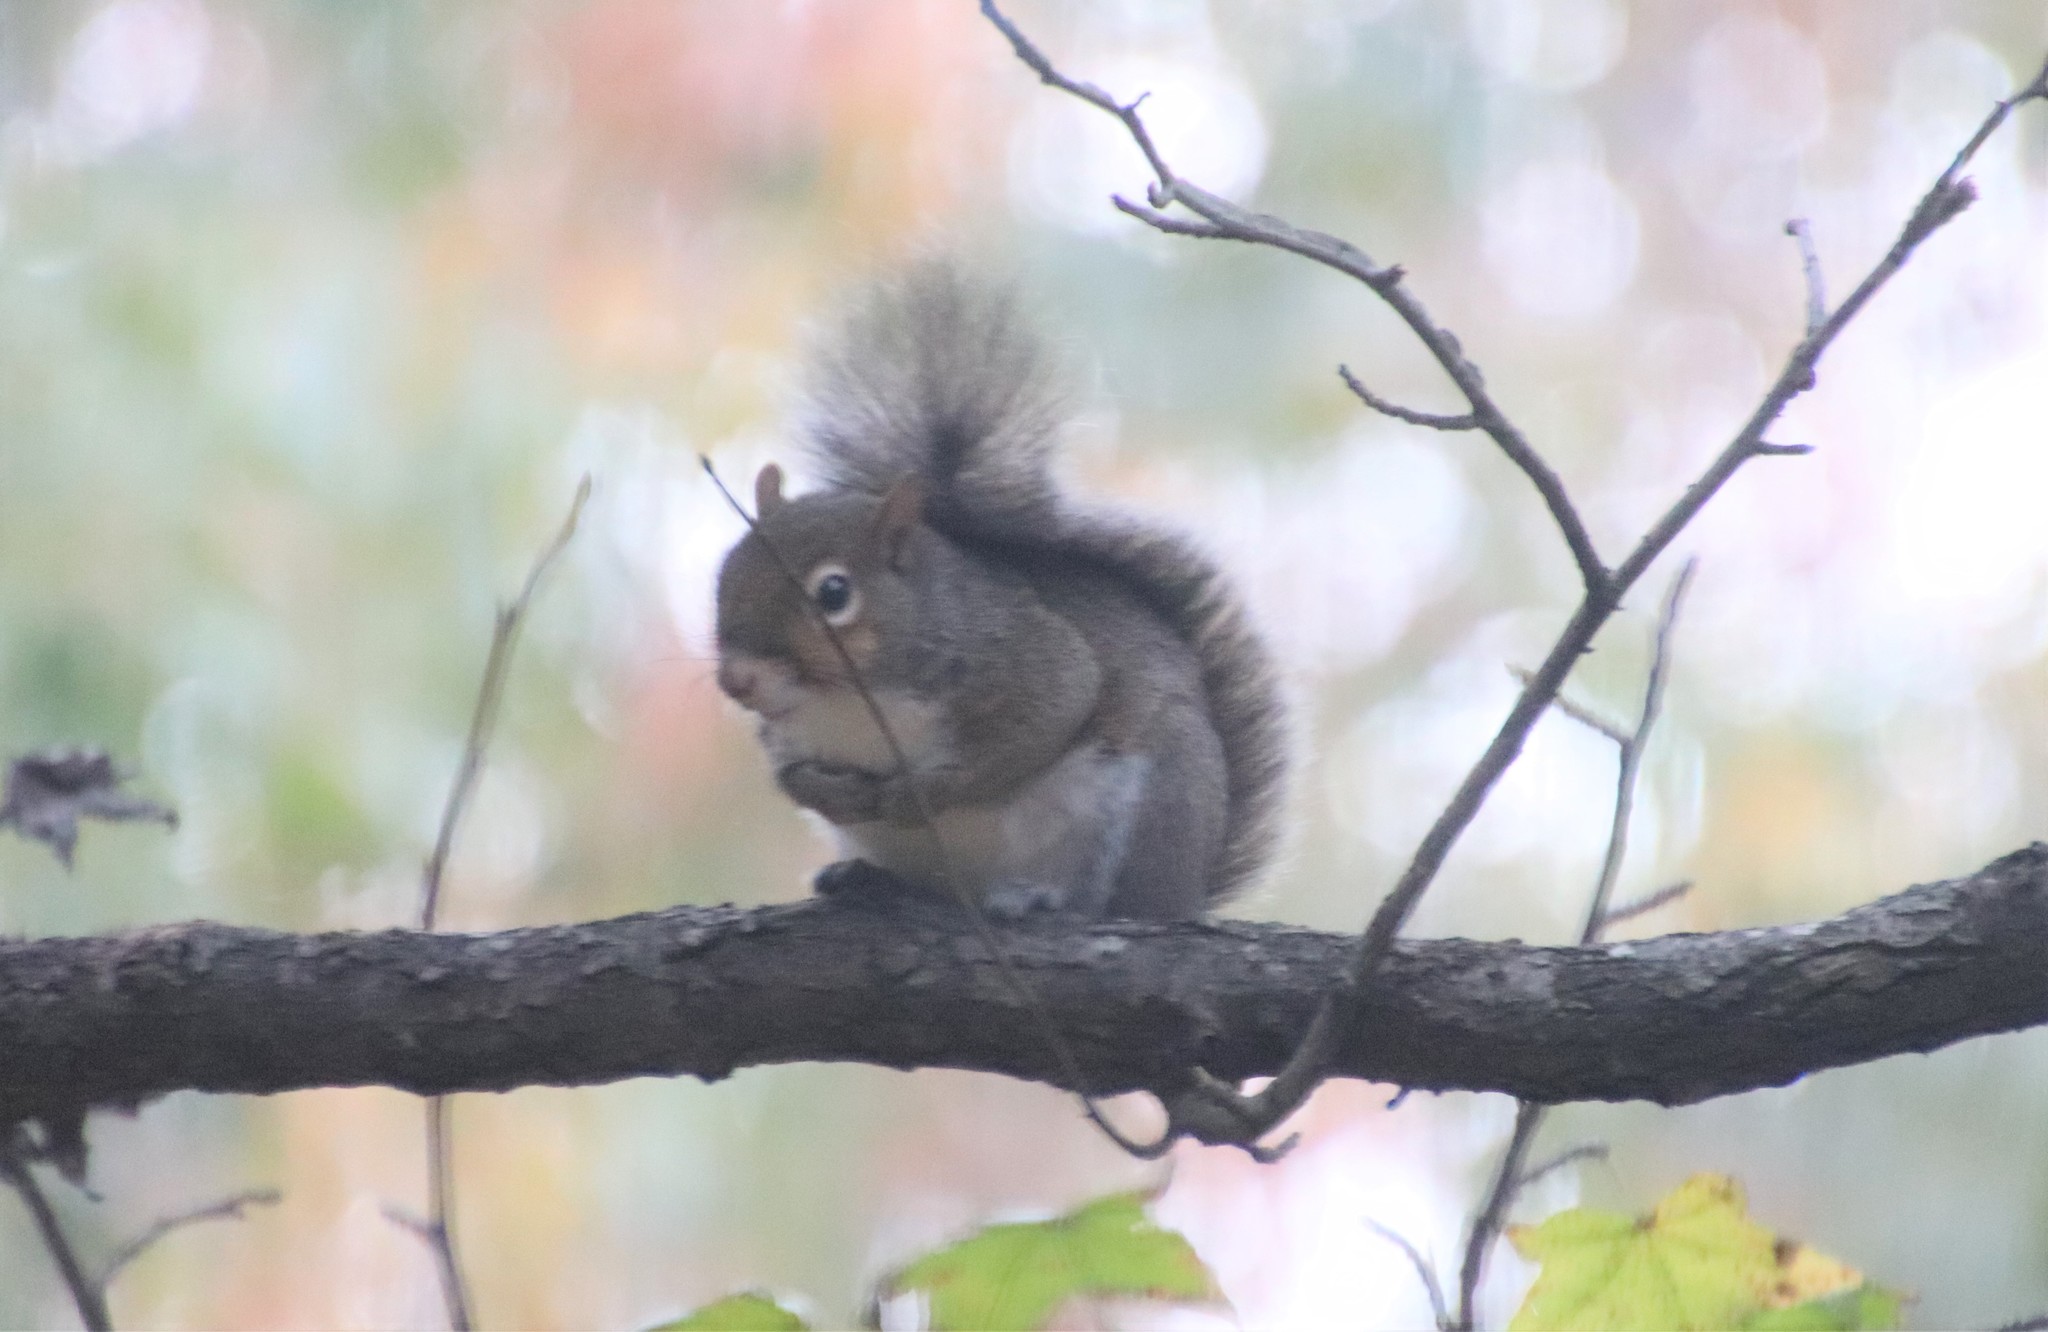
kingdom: Animalia
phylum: Chordata
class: Mammalia
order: Rodentia
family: Sciuridae
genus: Sciurus
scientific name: Sciurus carolinensis
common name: Eastern gray squirrel
